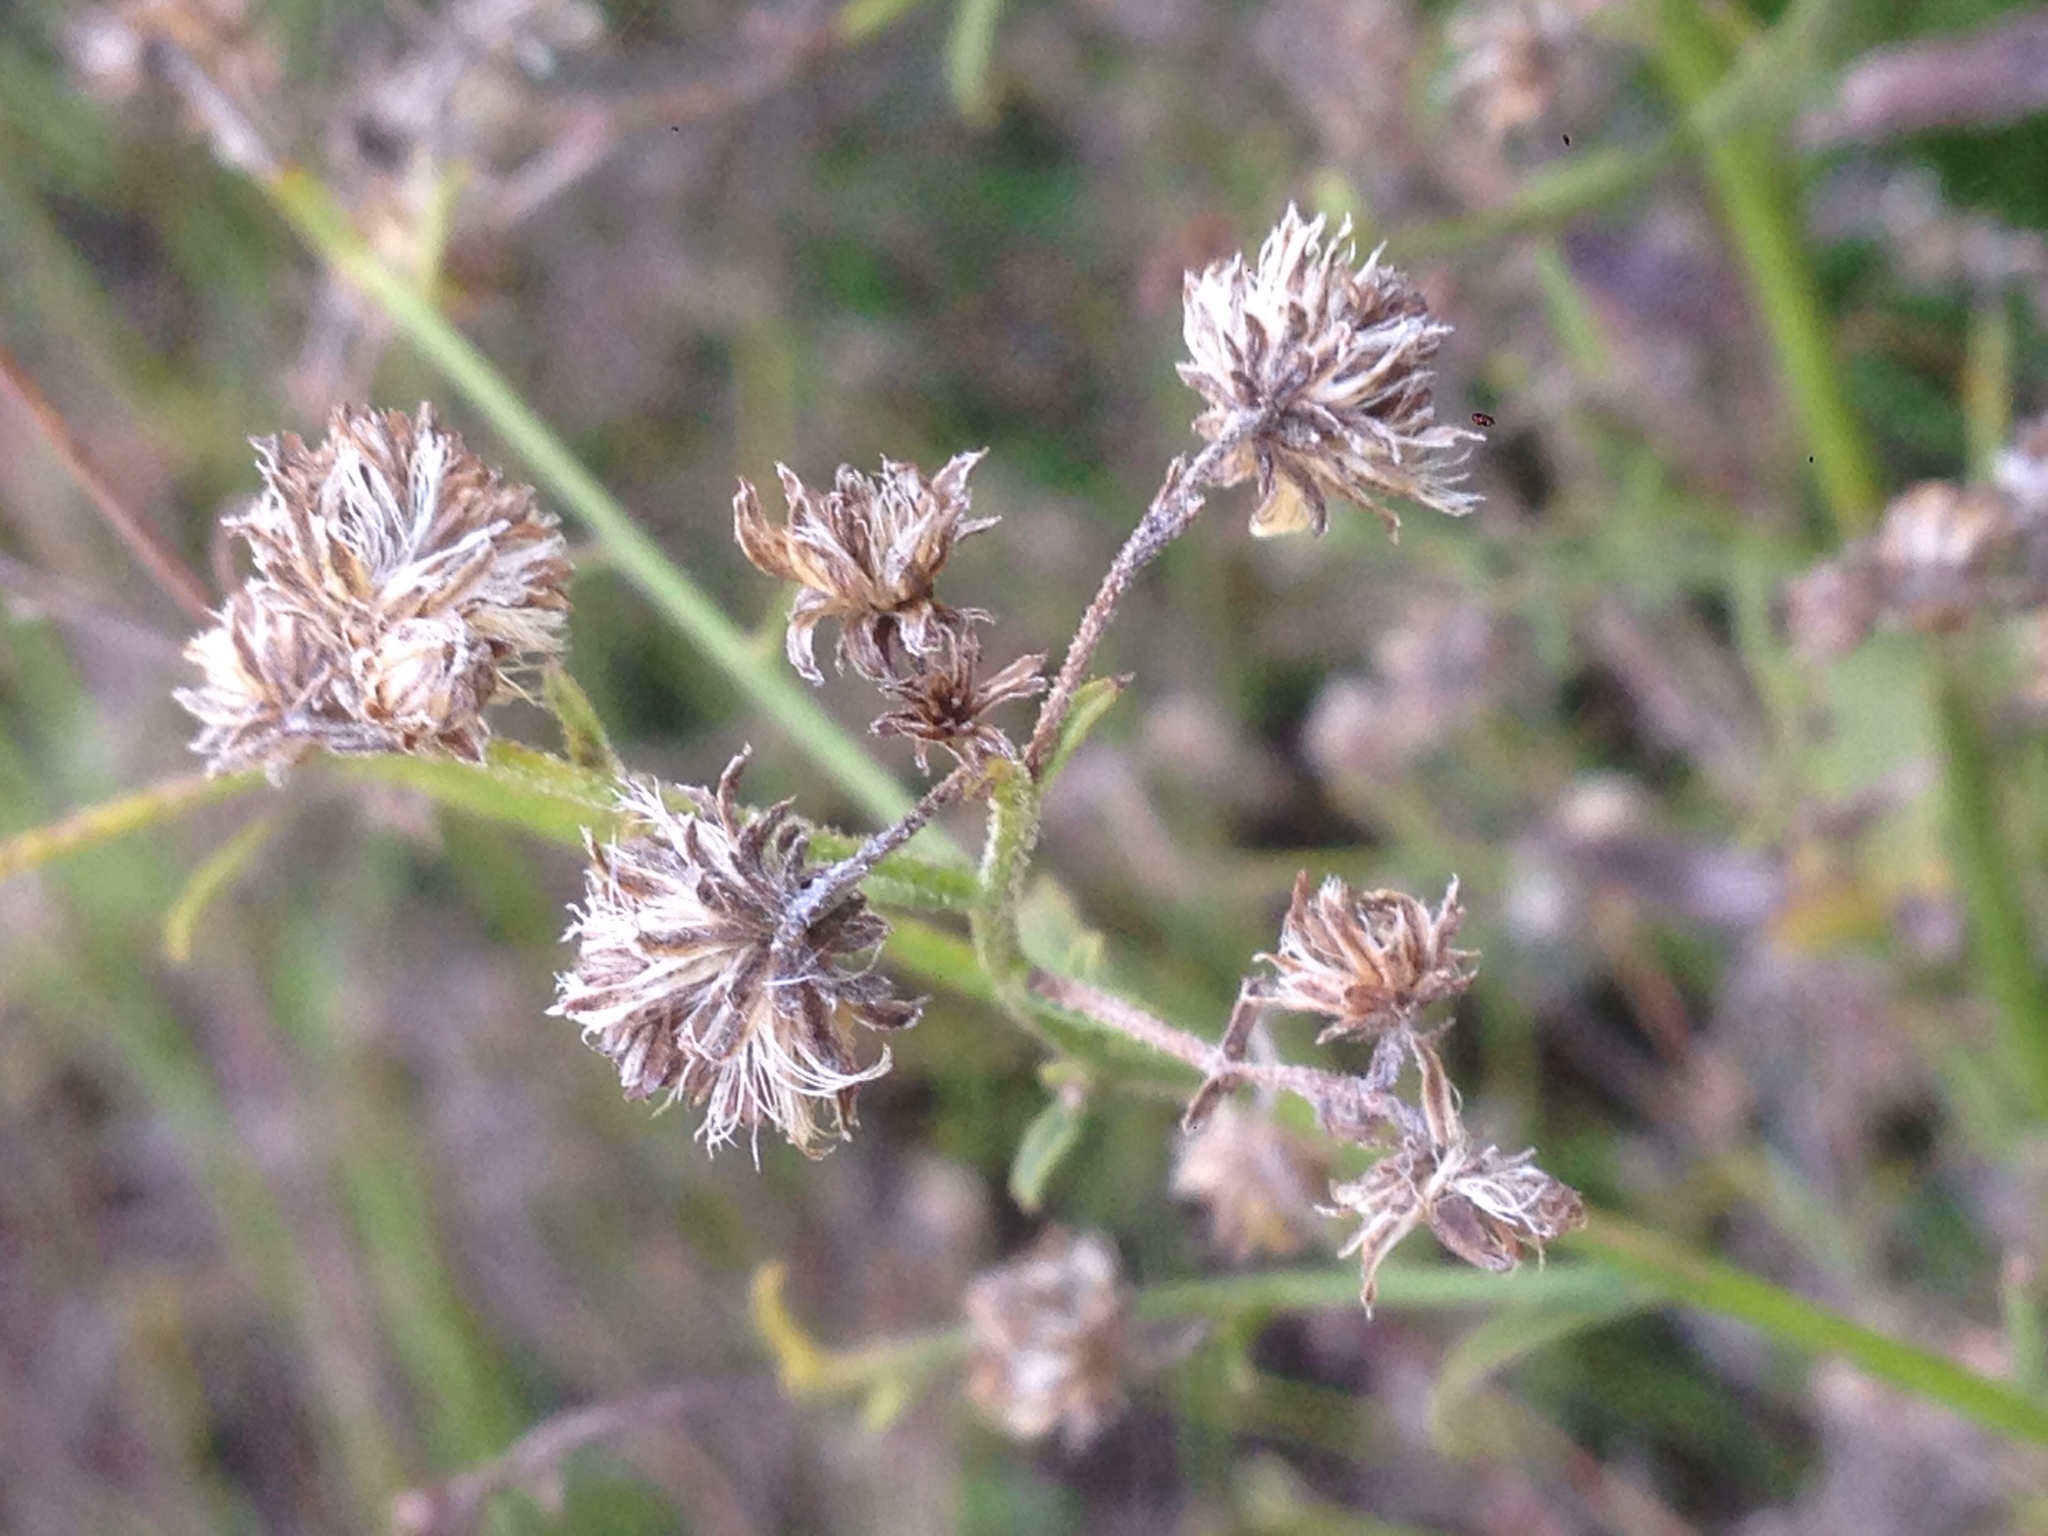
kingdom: Plantae
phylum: Tracheophyta
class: Magnoliopsida
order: Asterales
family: Asteraceae
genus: Baccharis
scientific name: Baccharis plummerae
